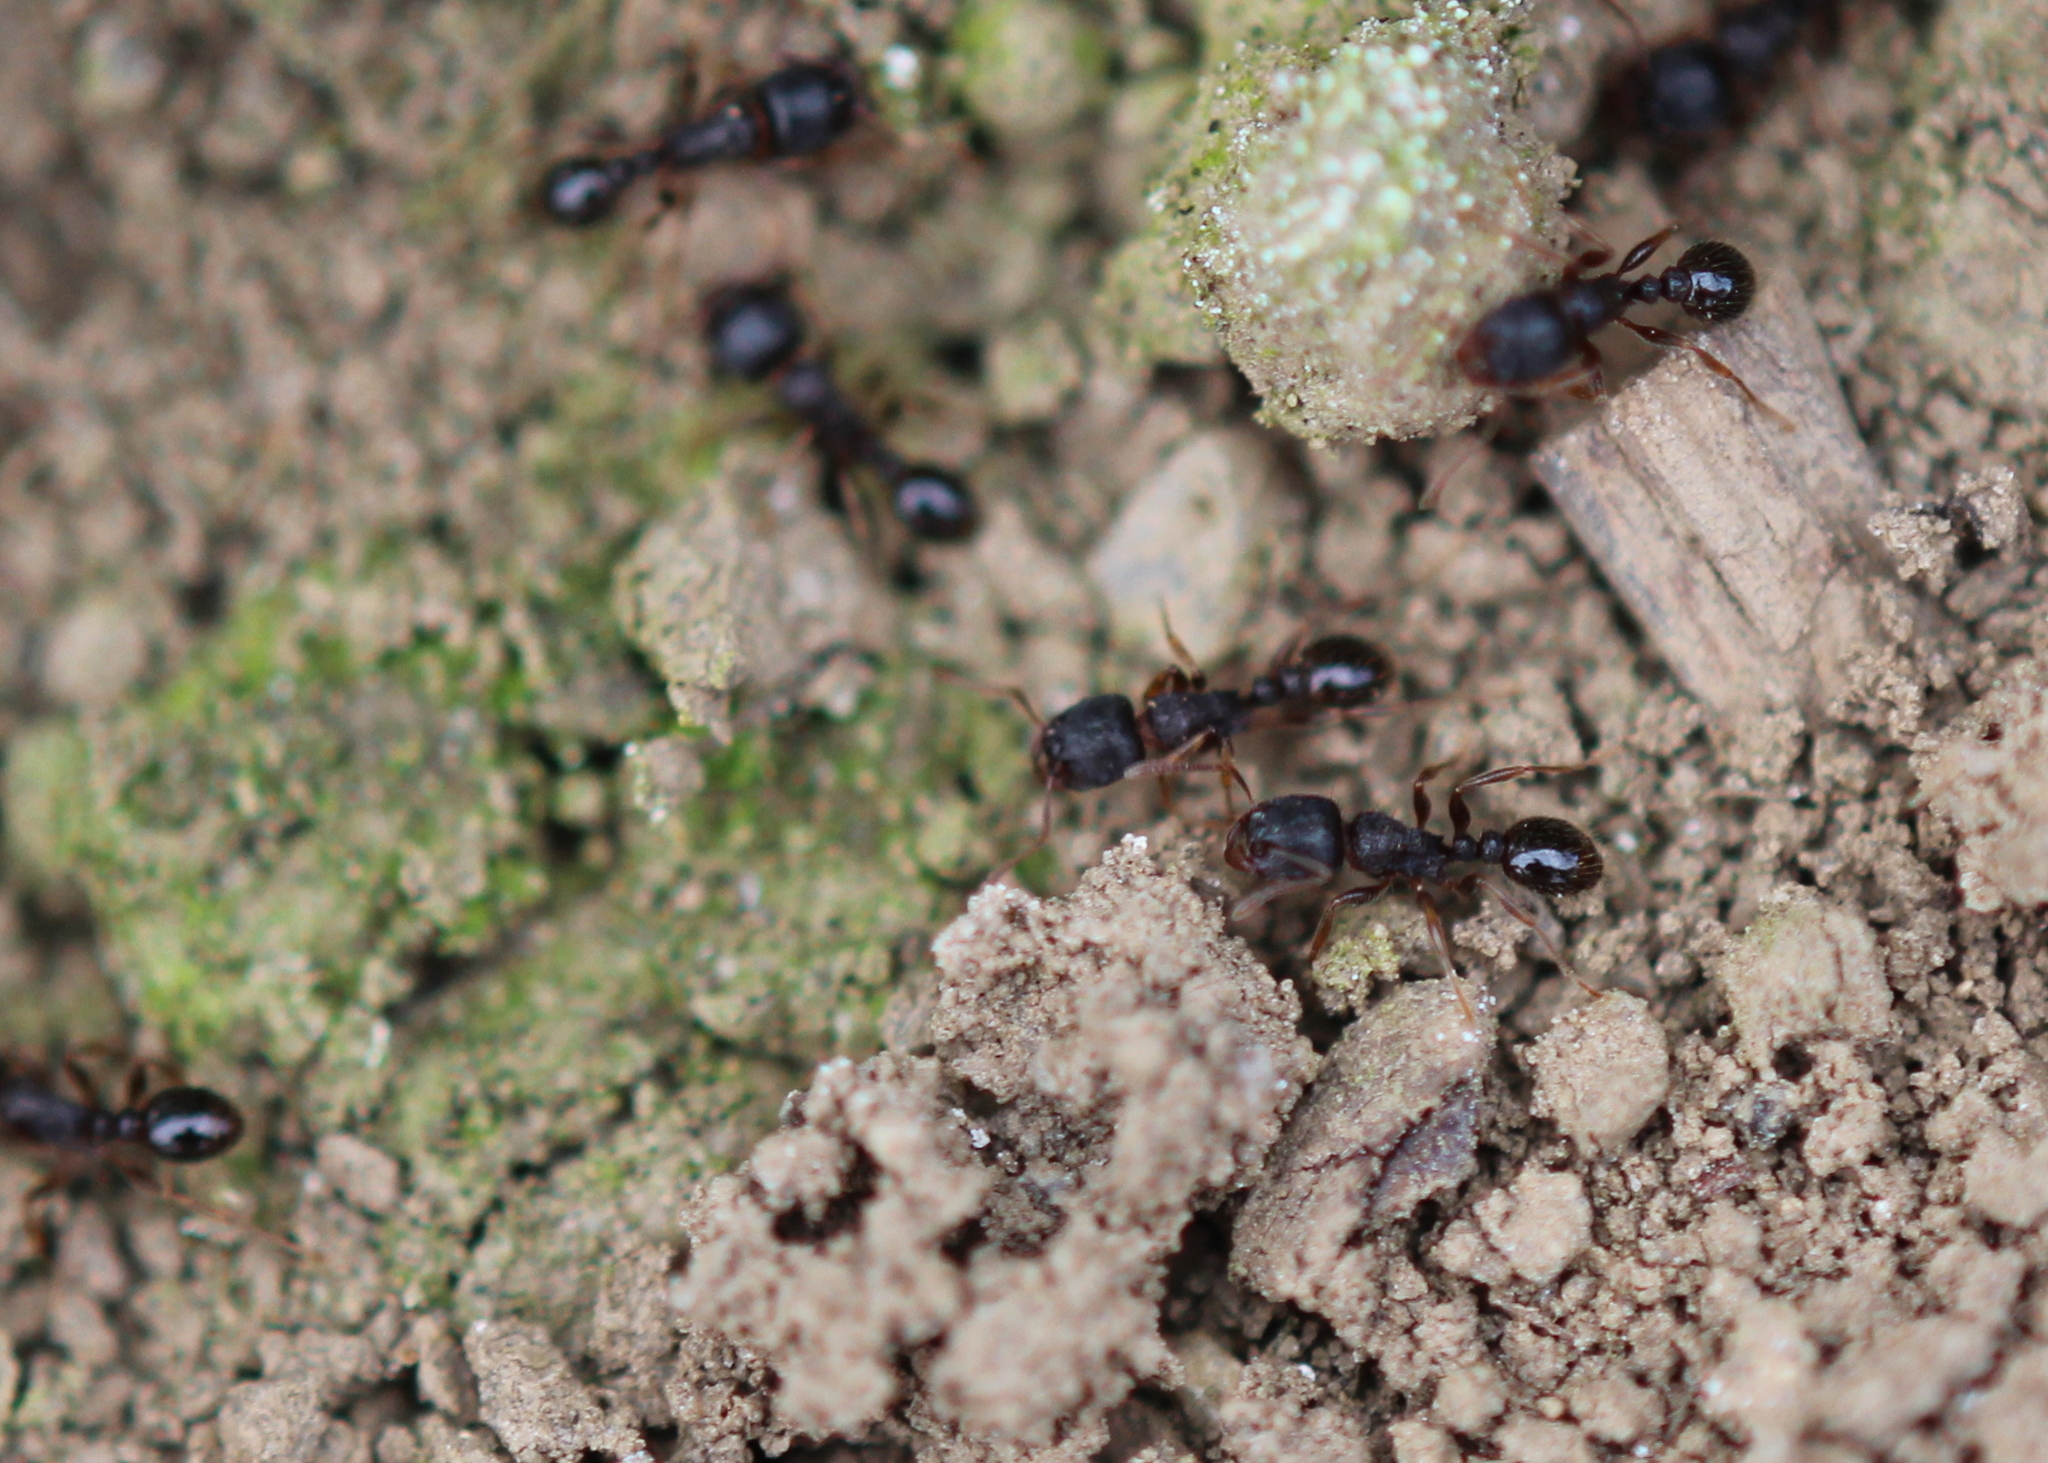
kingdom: Animalia
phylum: Arthropoda
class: Insecta
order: Hymenoptera
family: Formicidae
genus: Tetramorium
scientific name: Tetramorium immigrans
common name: Pavement ant
